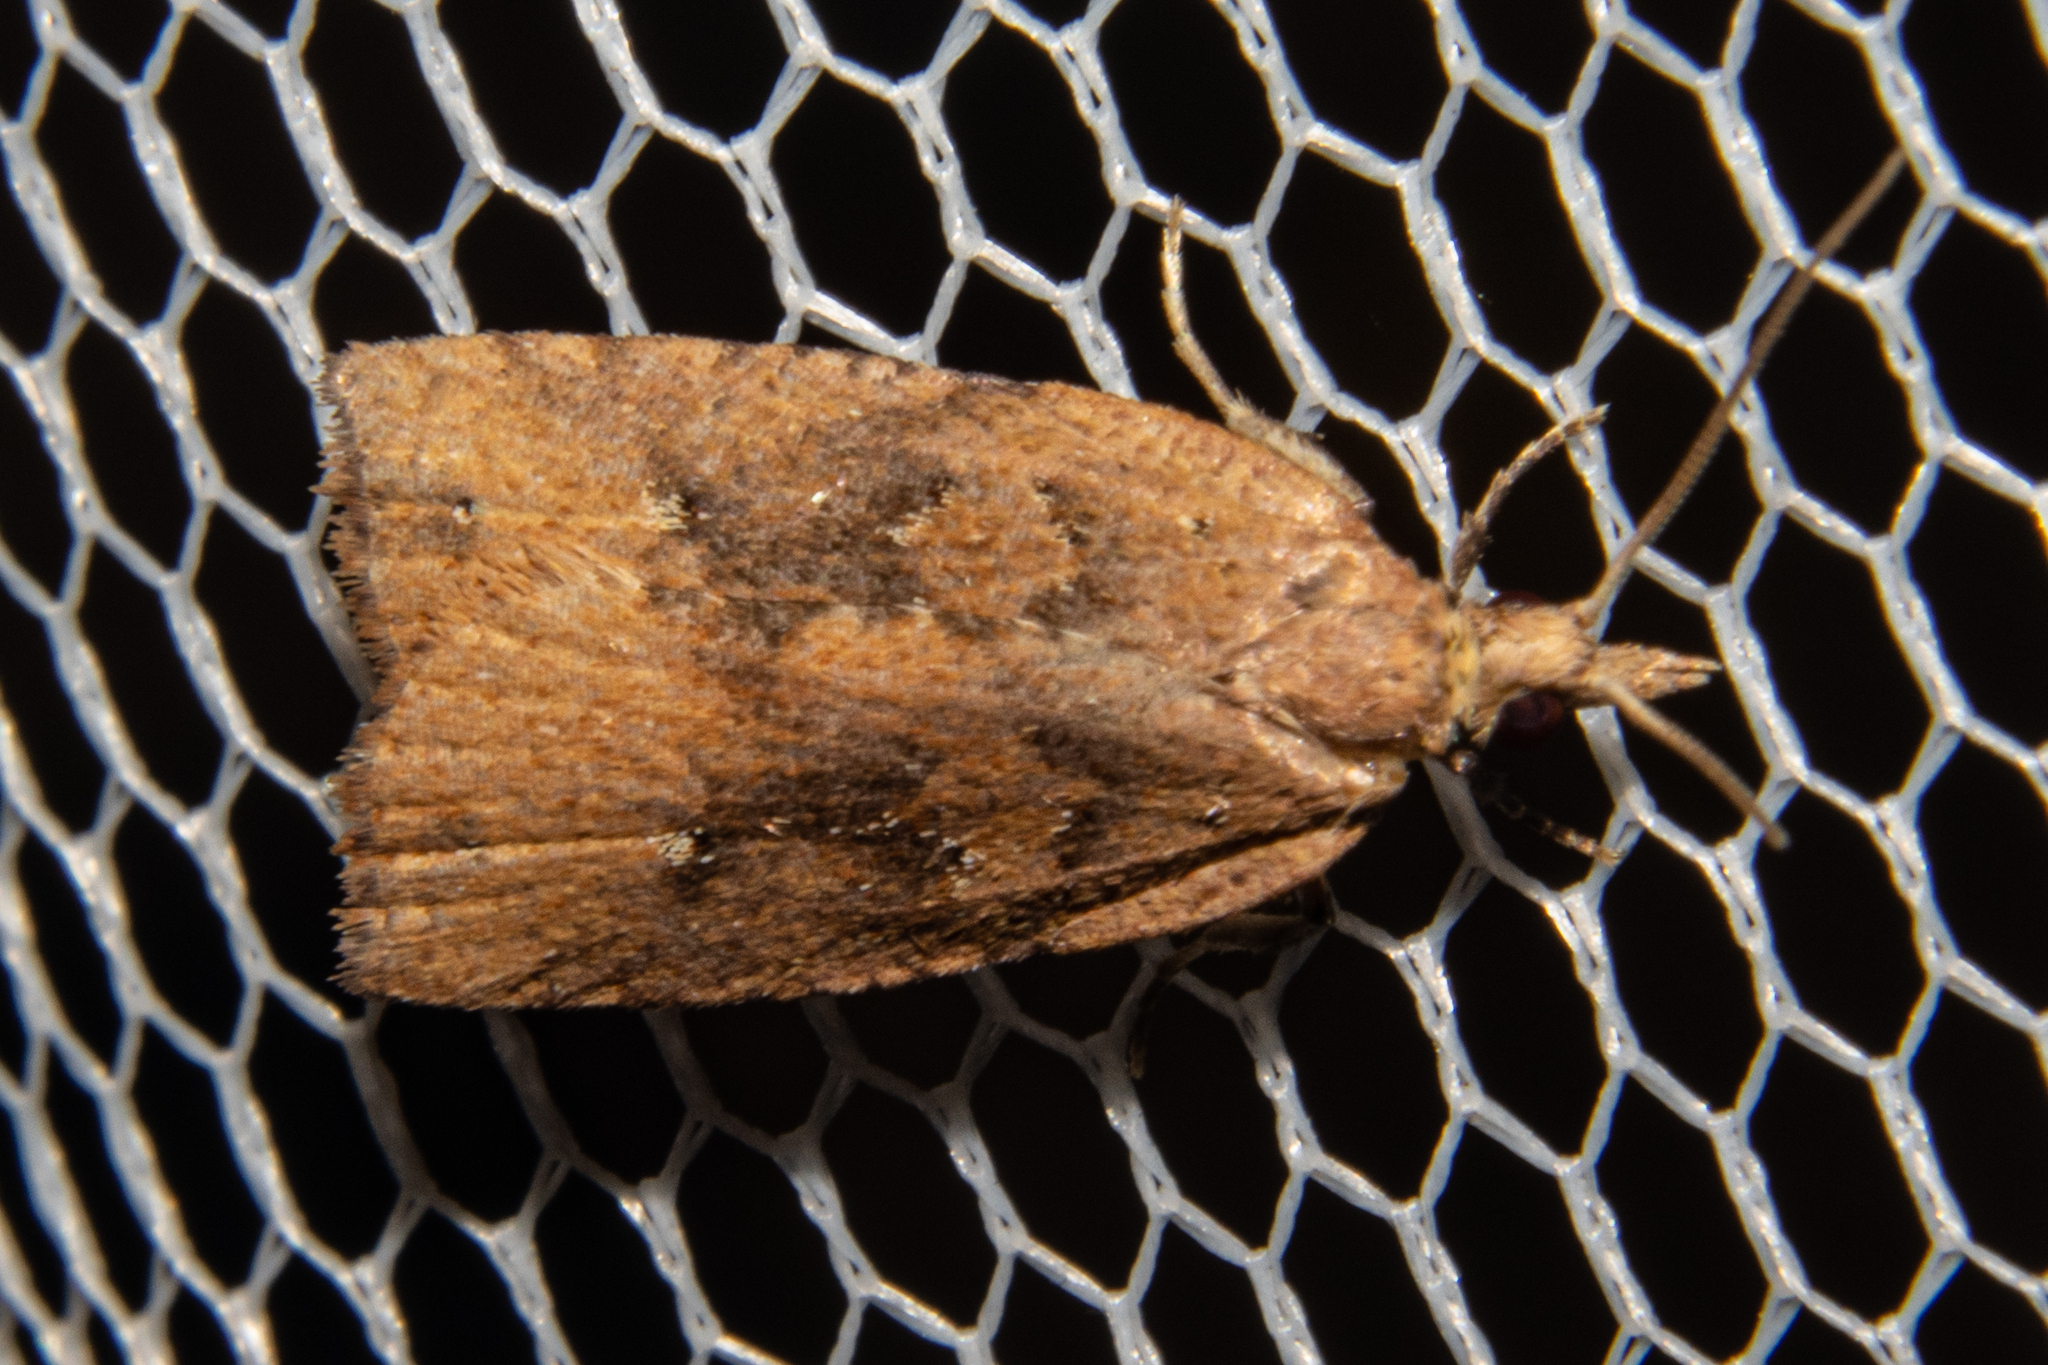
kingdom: Animalia
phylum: Arthropoda
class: Insecta
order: Lepidoptera
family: Tortricidae
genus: Planotortrix
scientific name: Planotortrix notophaea
